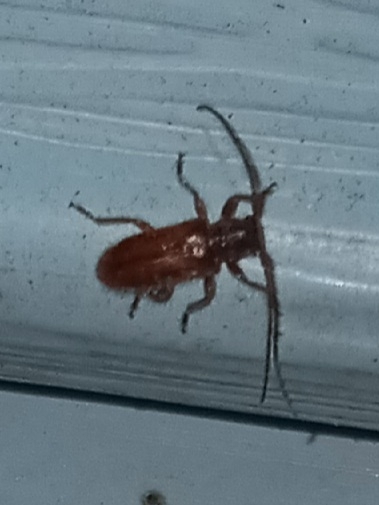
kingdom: Animalia
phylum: Arthropoda
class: Insecta
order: Coleoptera
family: Cerambycidae
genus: Eupogonius
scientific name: Eupogonius tomentosus
